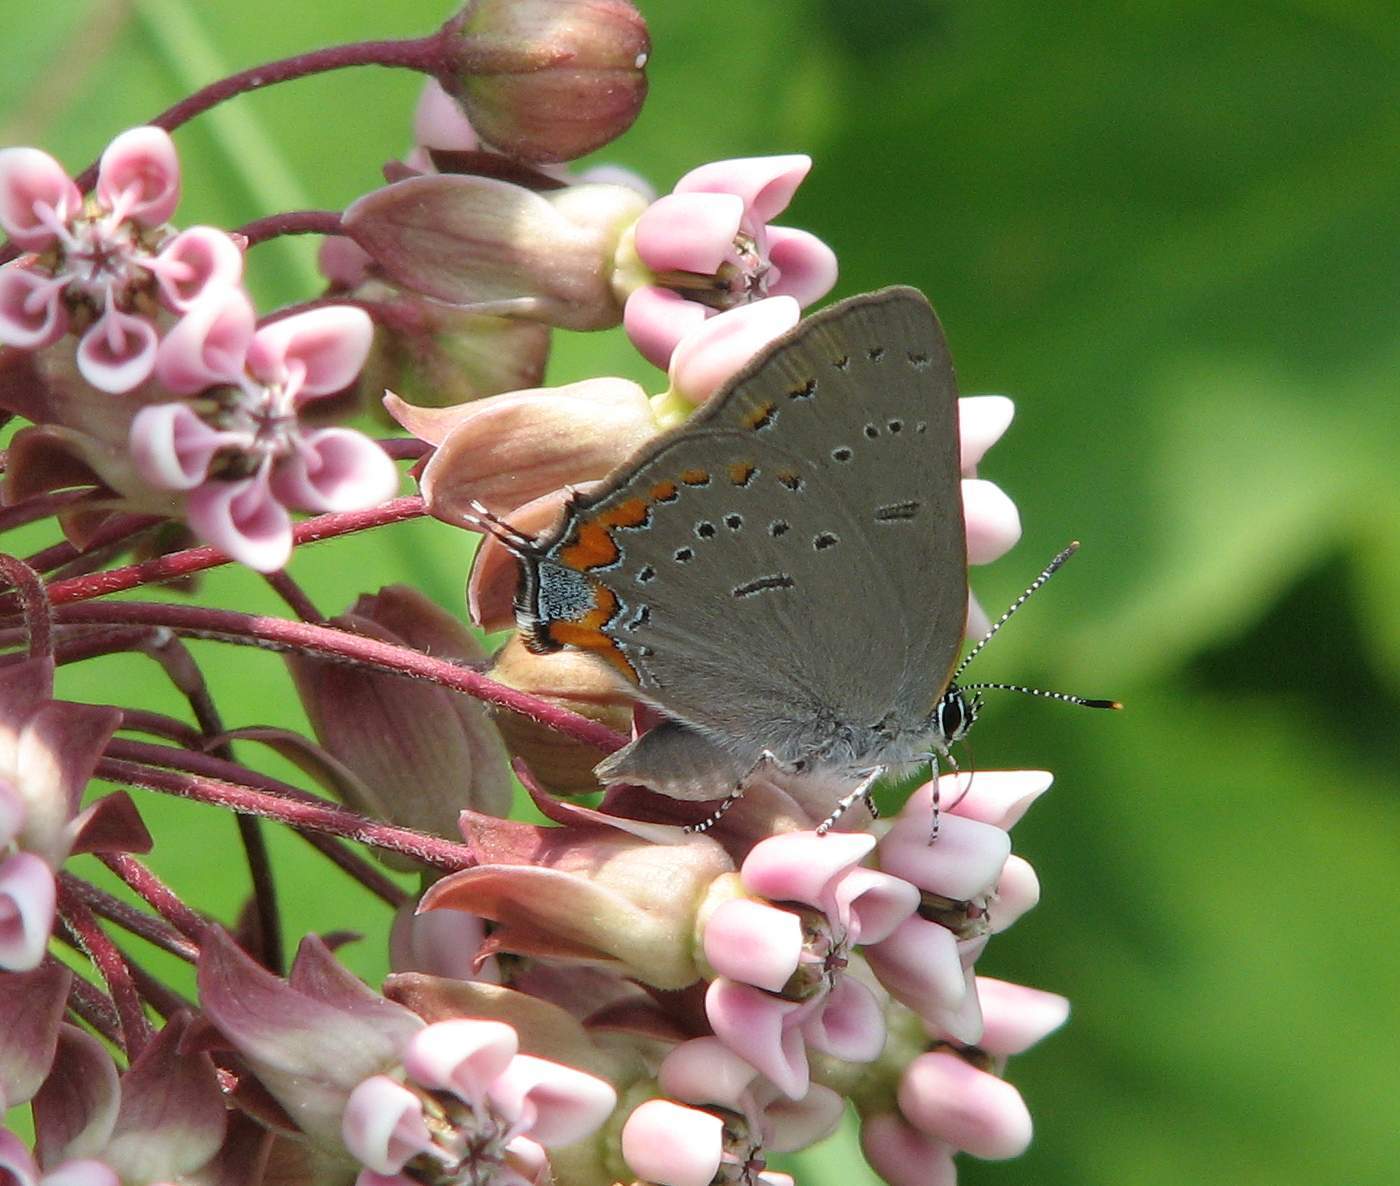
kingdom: Animalia
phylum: Arthropoda
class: Insecta
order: Lepidoptera
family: Lycaenidae
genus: Strymon
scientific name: Strymon acadica
